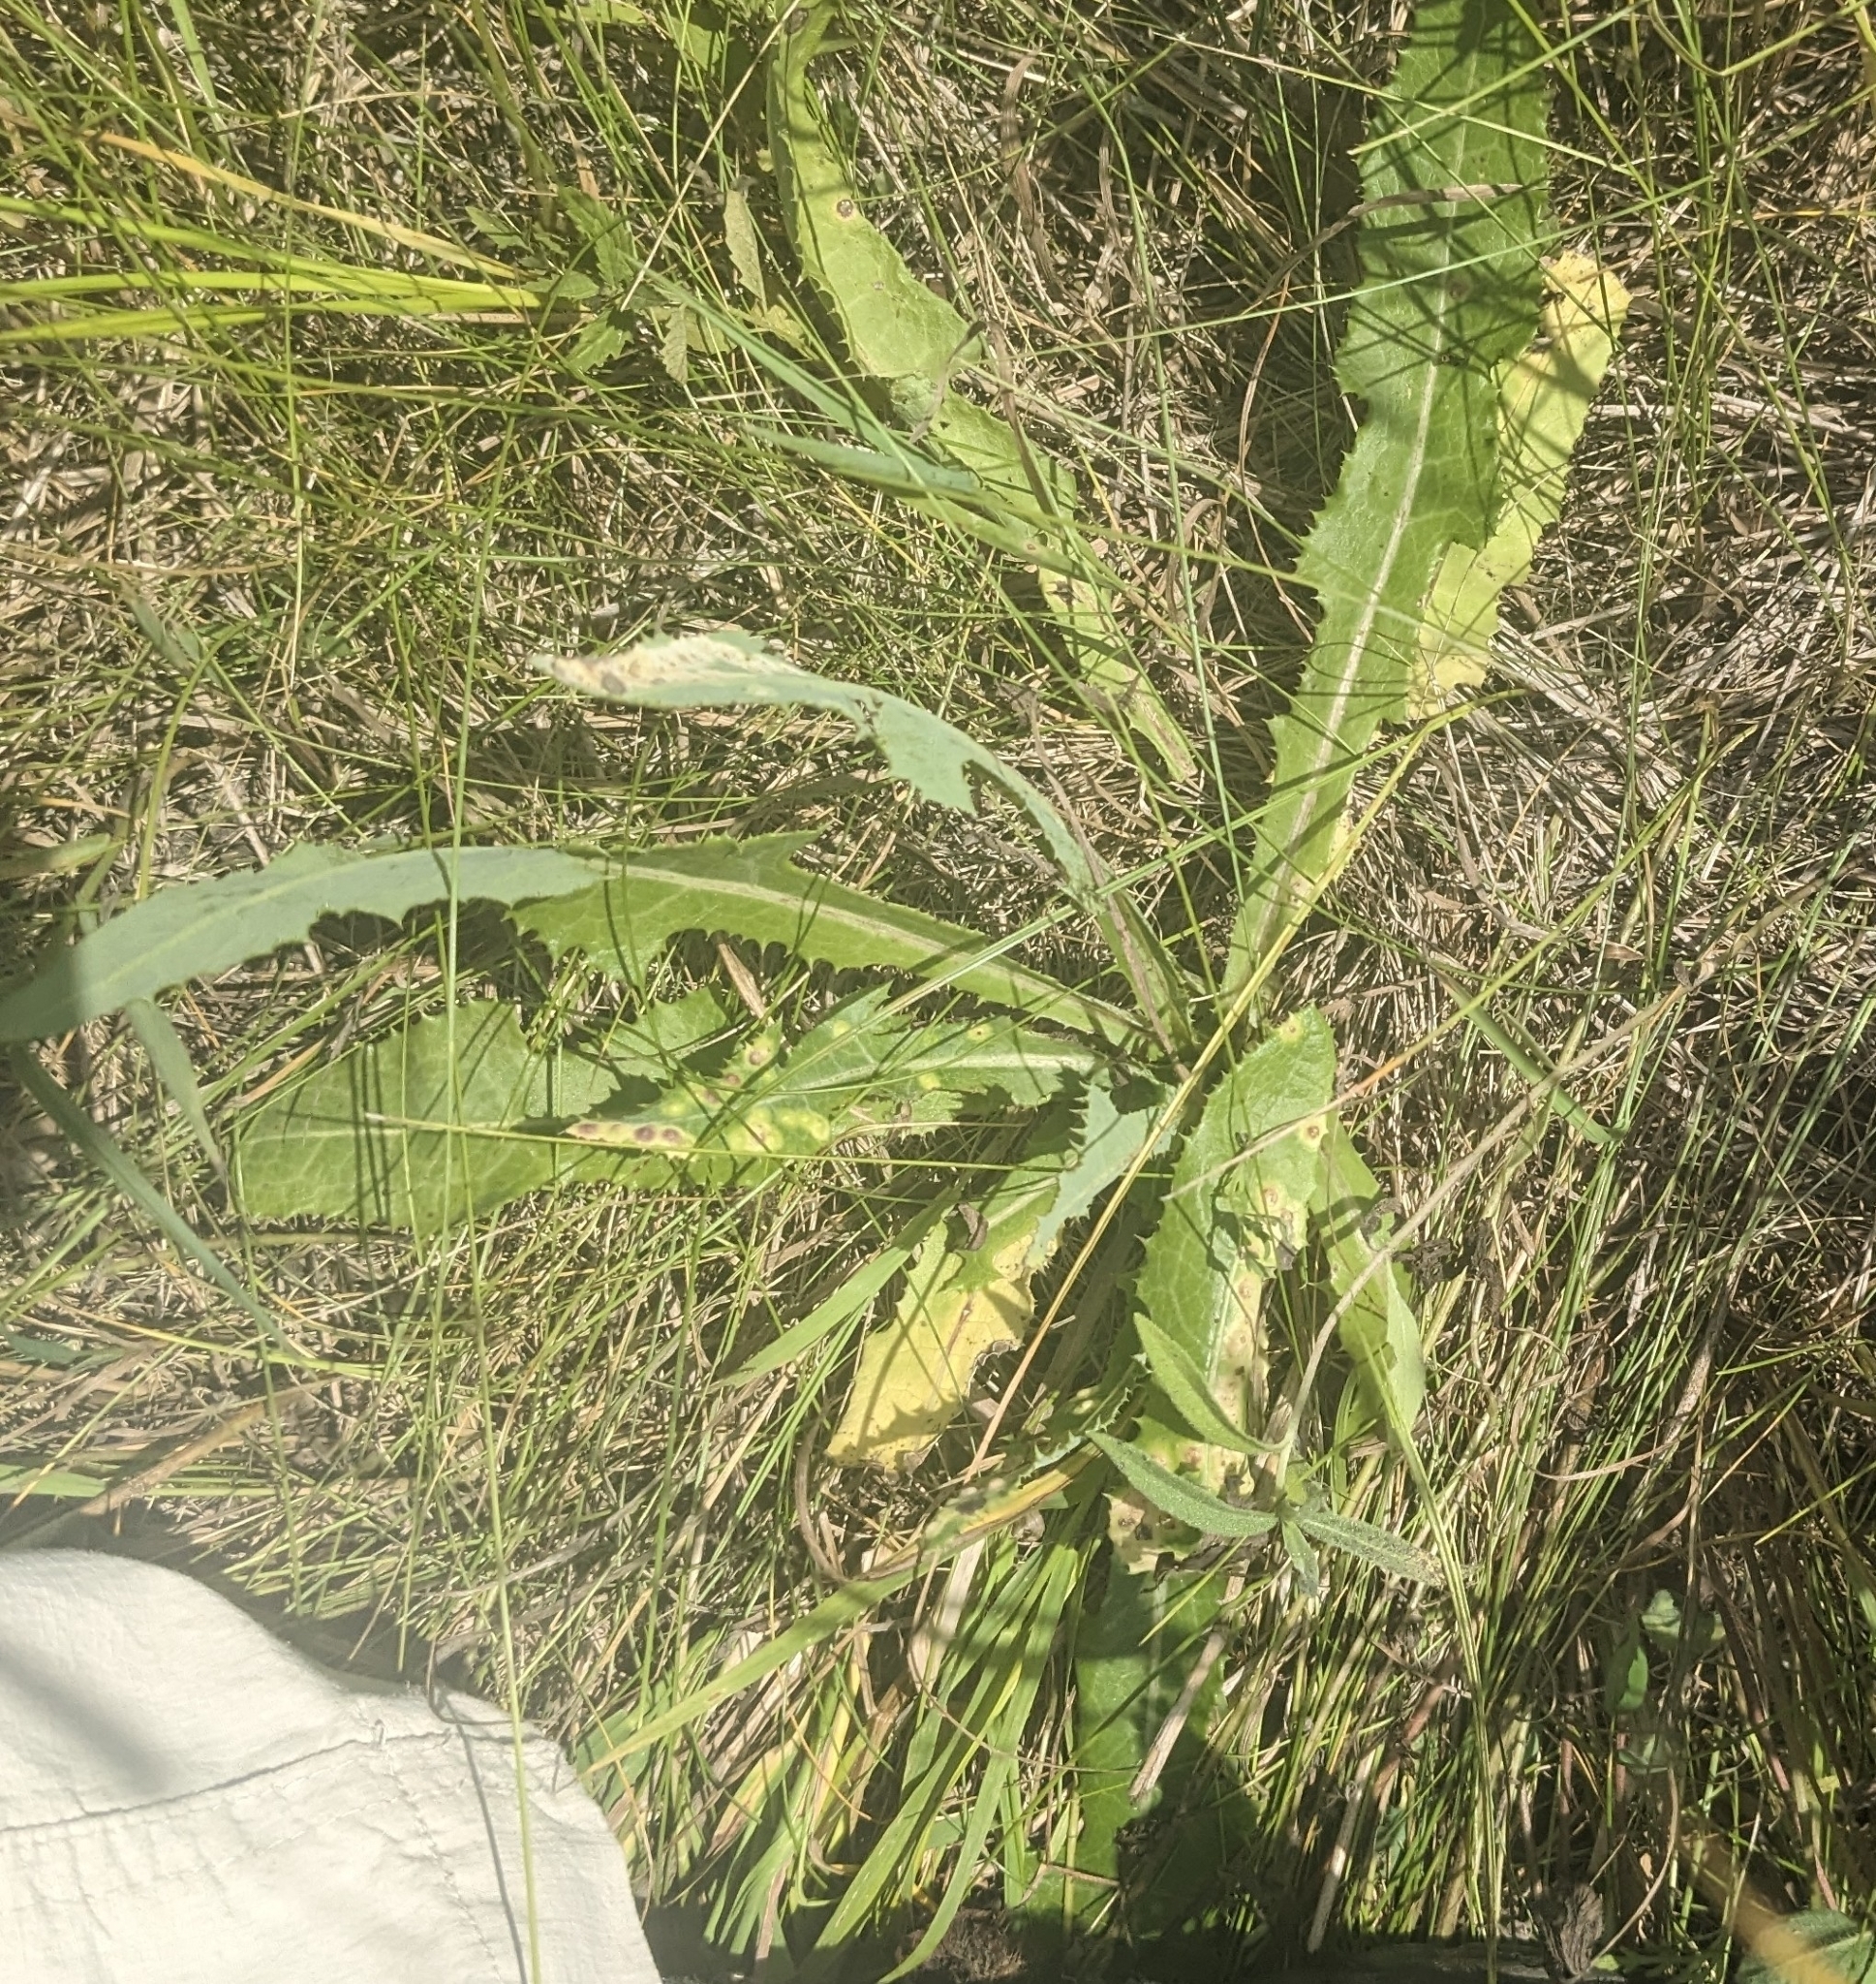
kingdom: Plantae
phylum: Tracheophyta
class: Magnoliopsida
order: Asterales
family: Asteraceae
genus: Sonchus
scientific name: Sonchus arvensis
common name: Perennial sow-thistle
